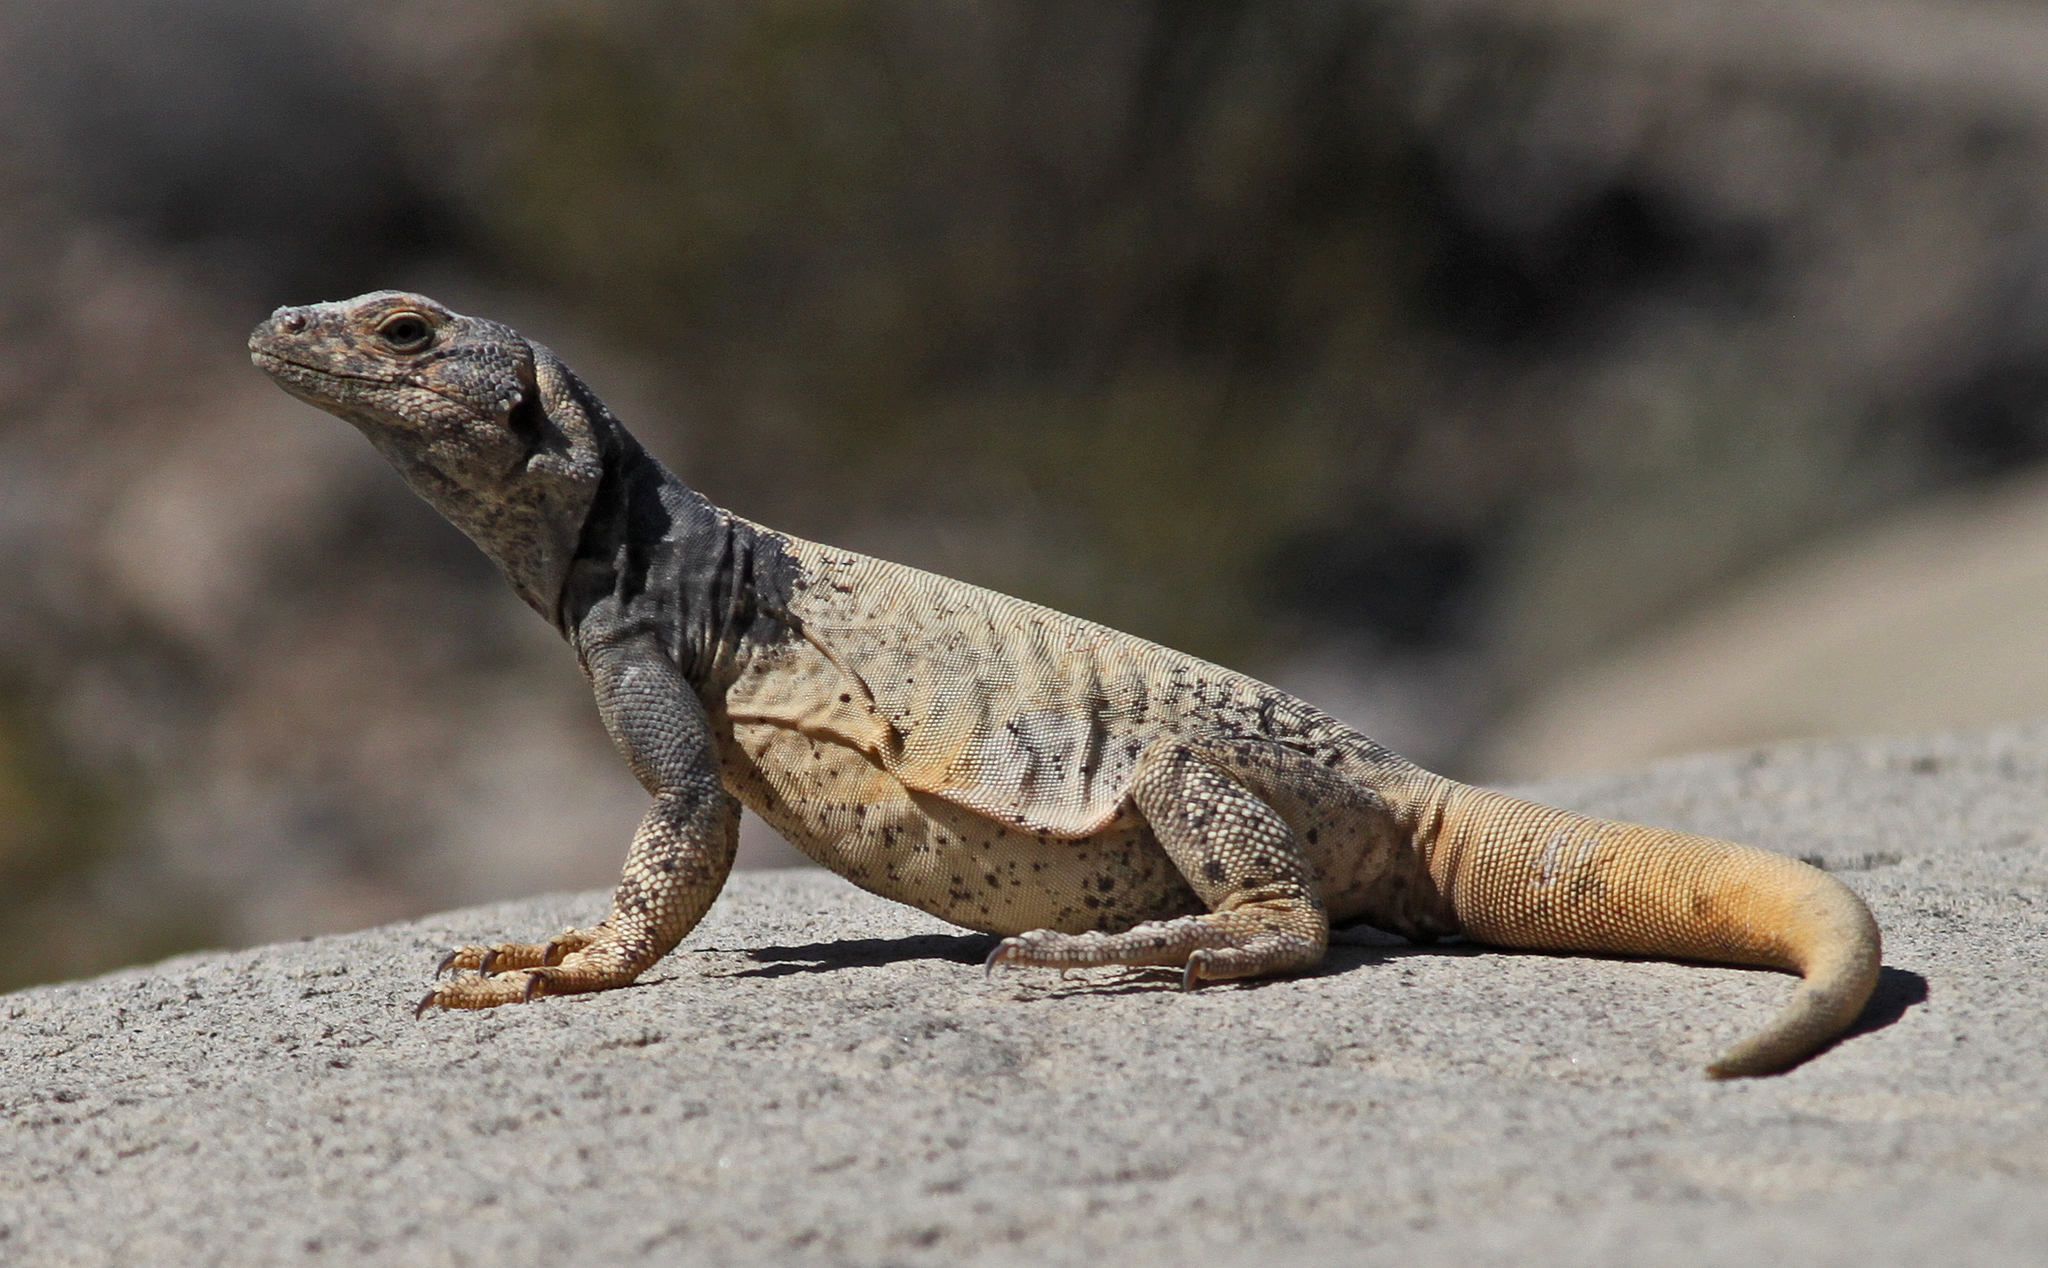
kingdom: Animalia
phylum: Chordata
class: Squamata
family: Iguanidae
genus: Sauromalus
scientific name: Sauromalus ater
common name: Northern chuckwalla
